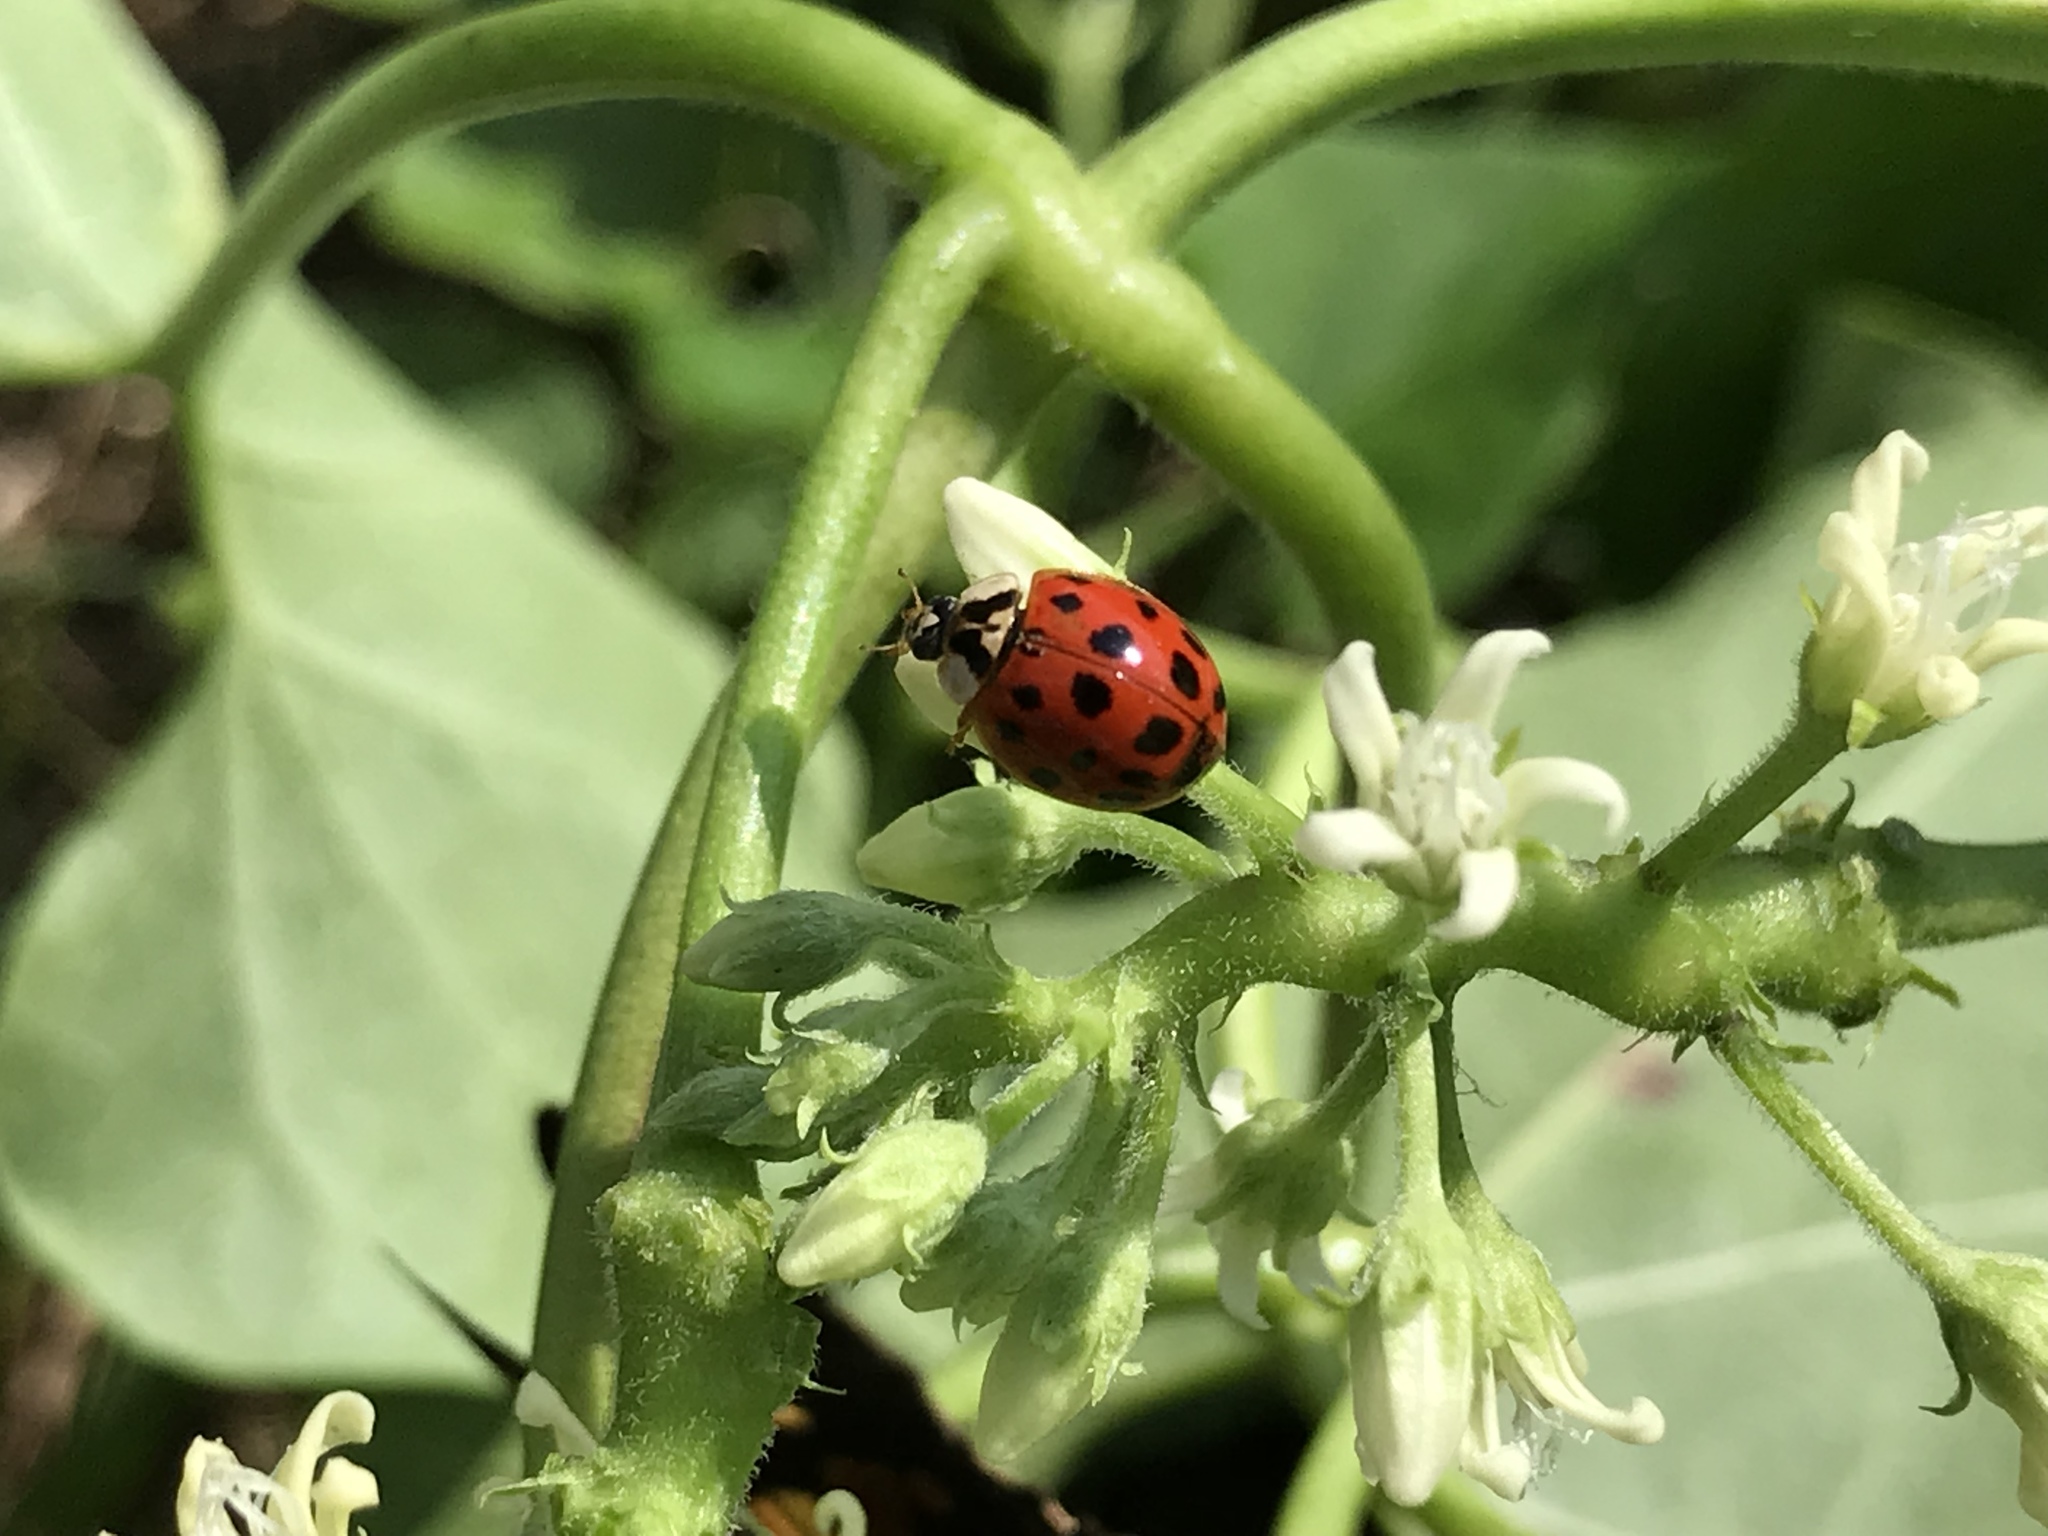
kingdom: Animalia
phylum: Arthropoda
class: Insecta
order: Coleoptera
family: Coccinellidae
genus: Harmonia
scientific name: Harmonia axyridis
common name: Harlequin ladybird
